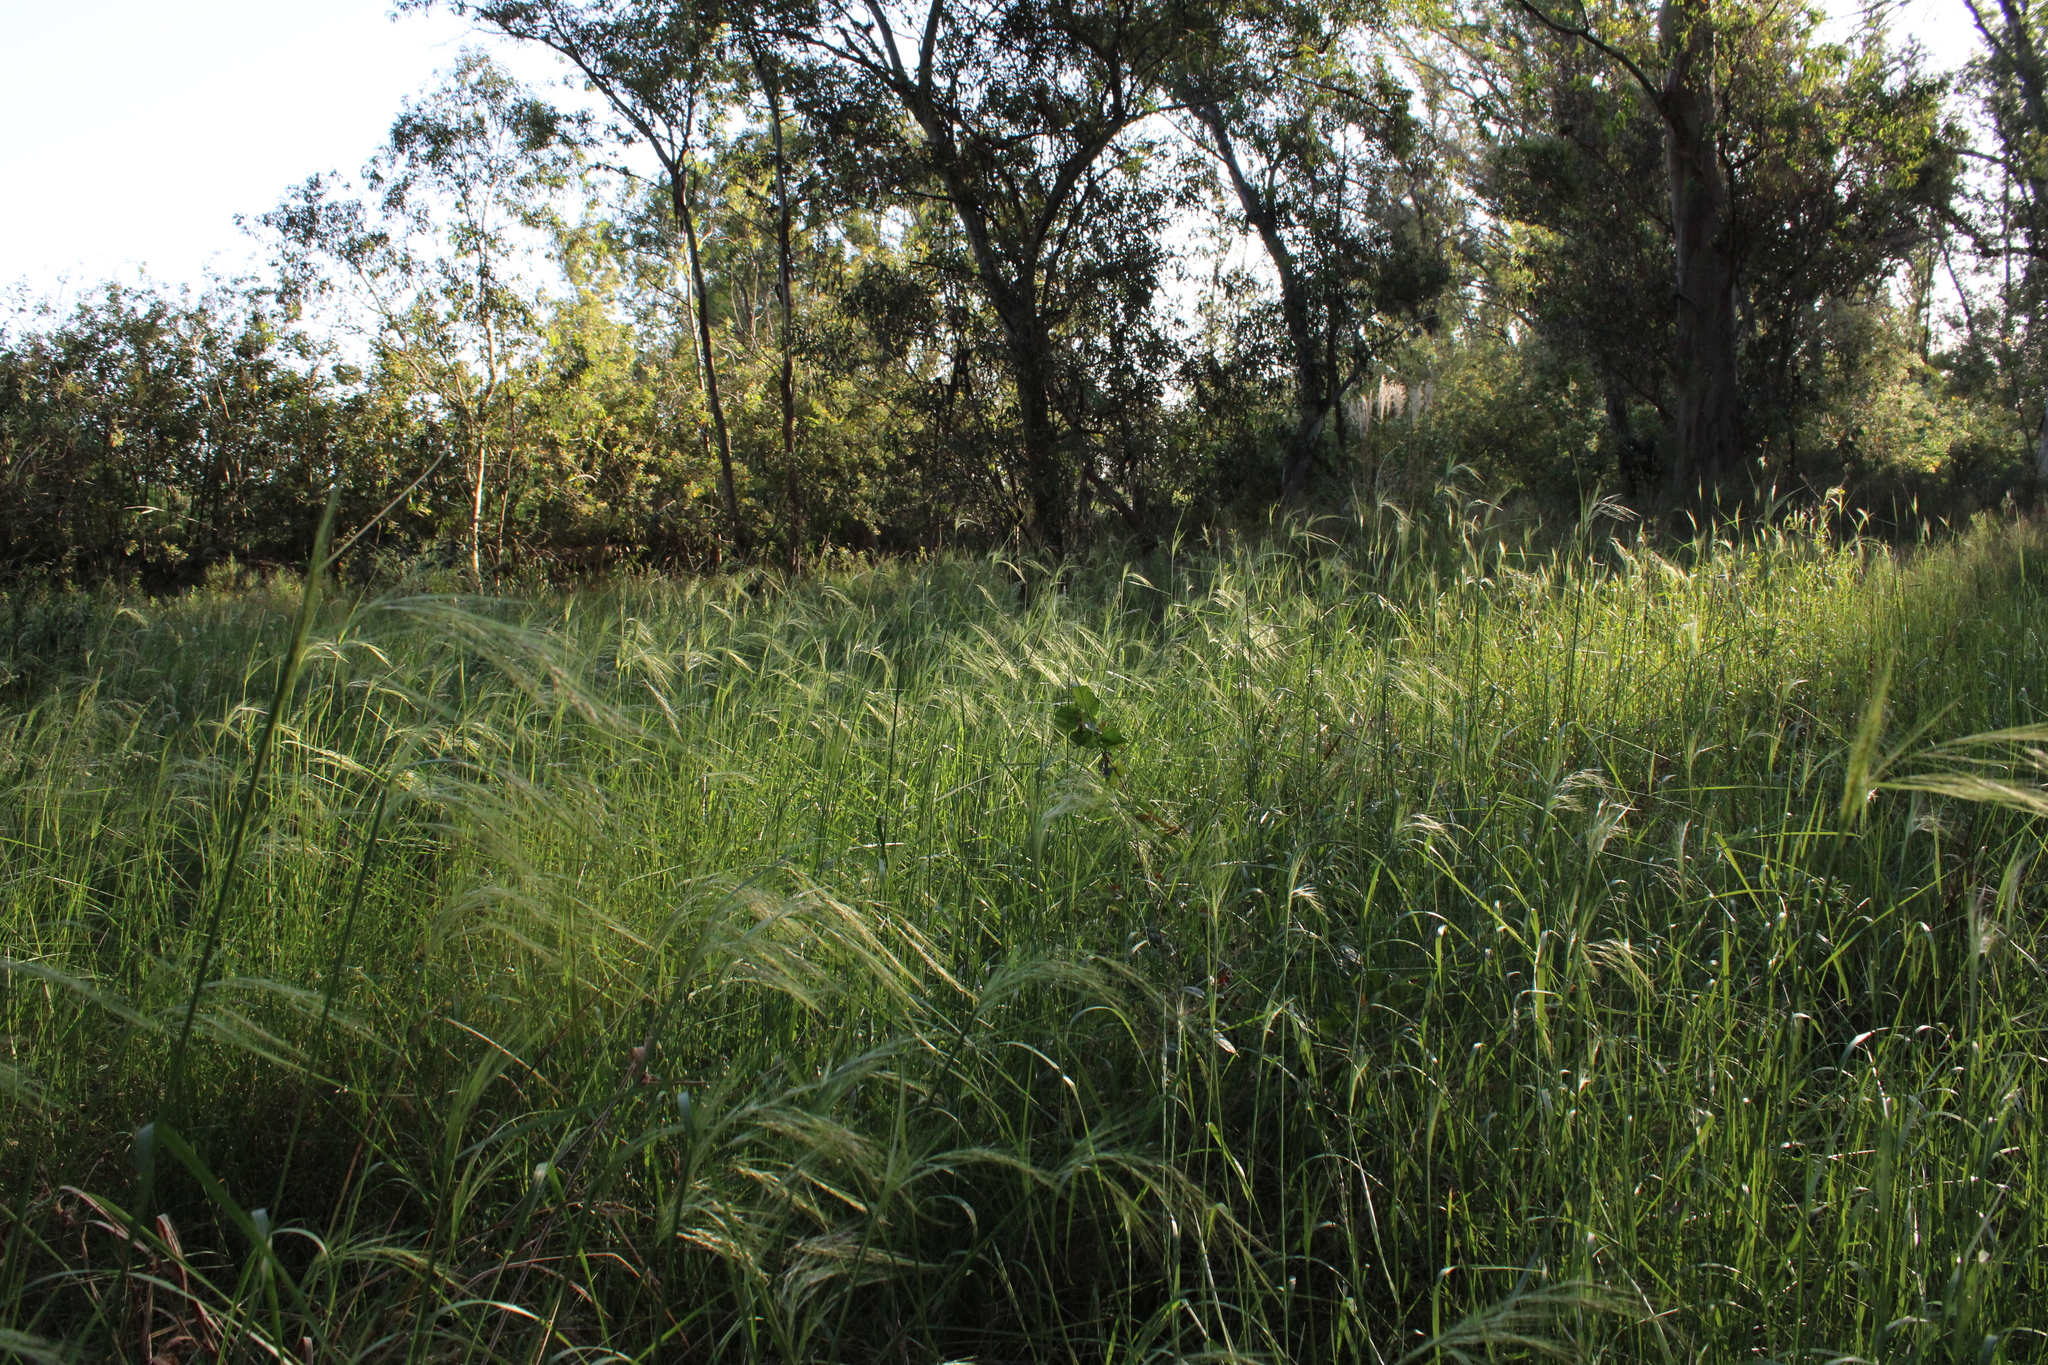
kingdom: Plantae
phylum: Tracheophyta
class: Liliopsida
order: Poales
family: Poaceae
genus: Nassella
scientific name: Nassella neesiana
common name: American needle-grass
